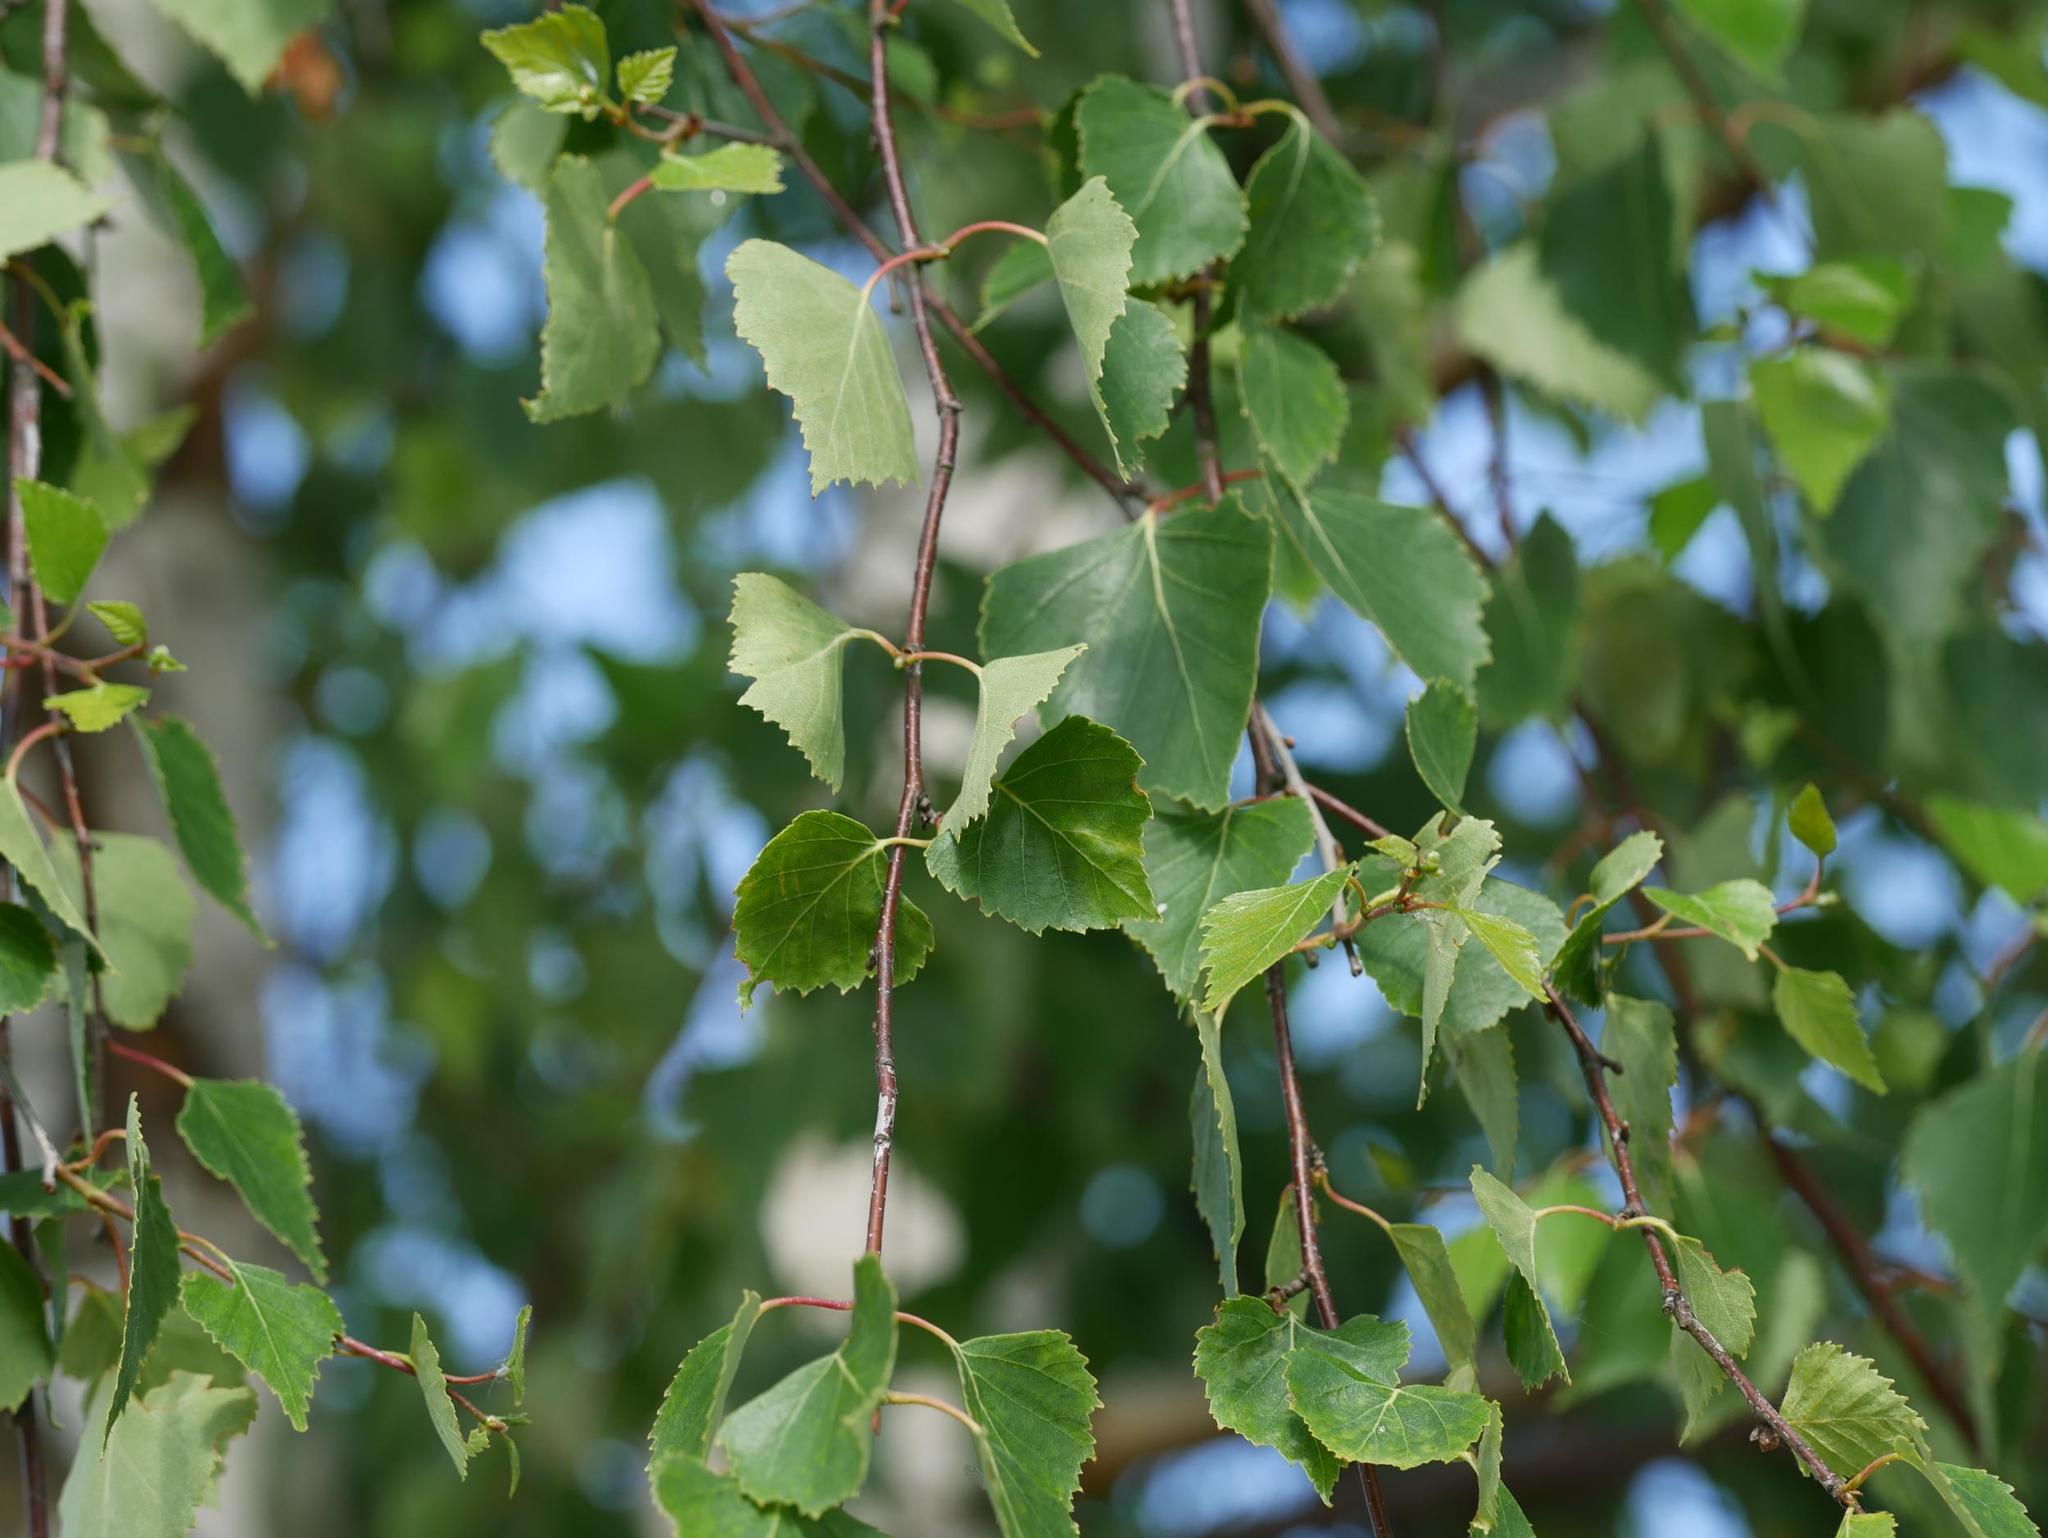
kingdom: Plantae
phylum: Tracheophyta
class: Magnoliopsida
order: Fagales
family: Betulaceae
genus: Betula
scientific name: Betula pendula
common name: Silver birch
